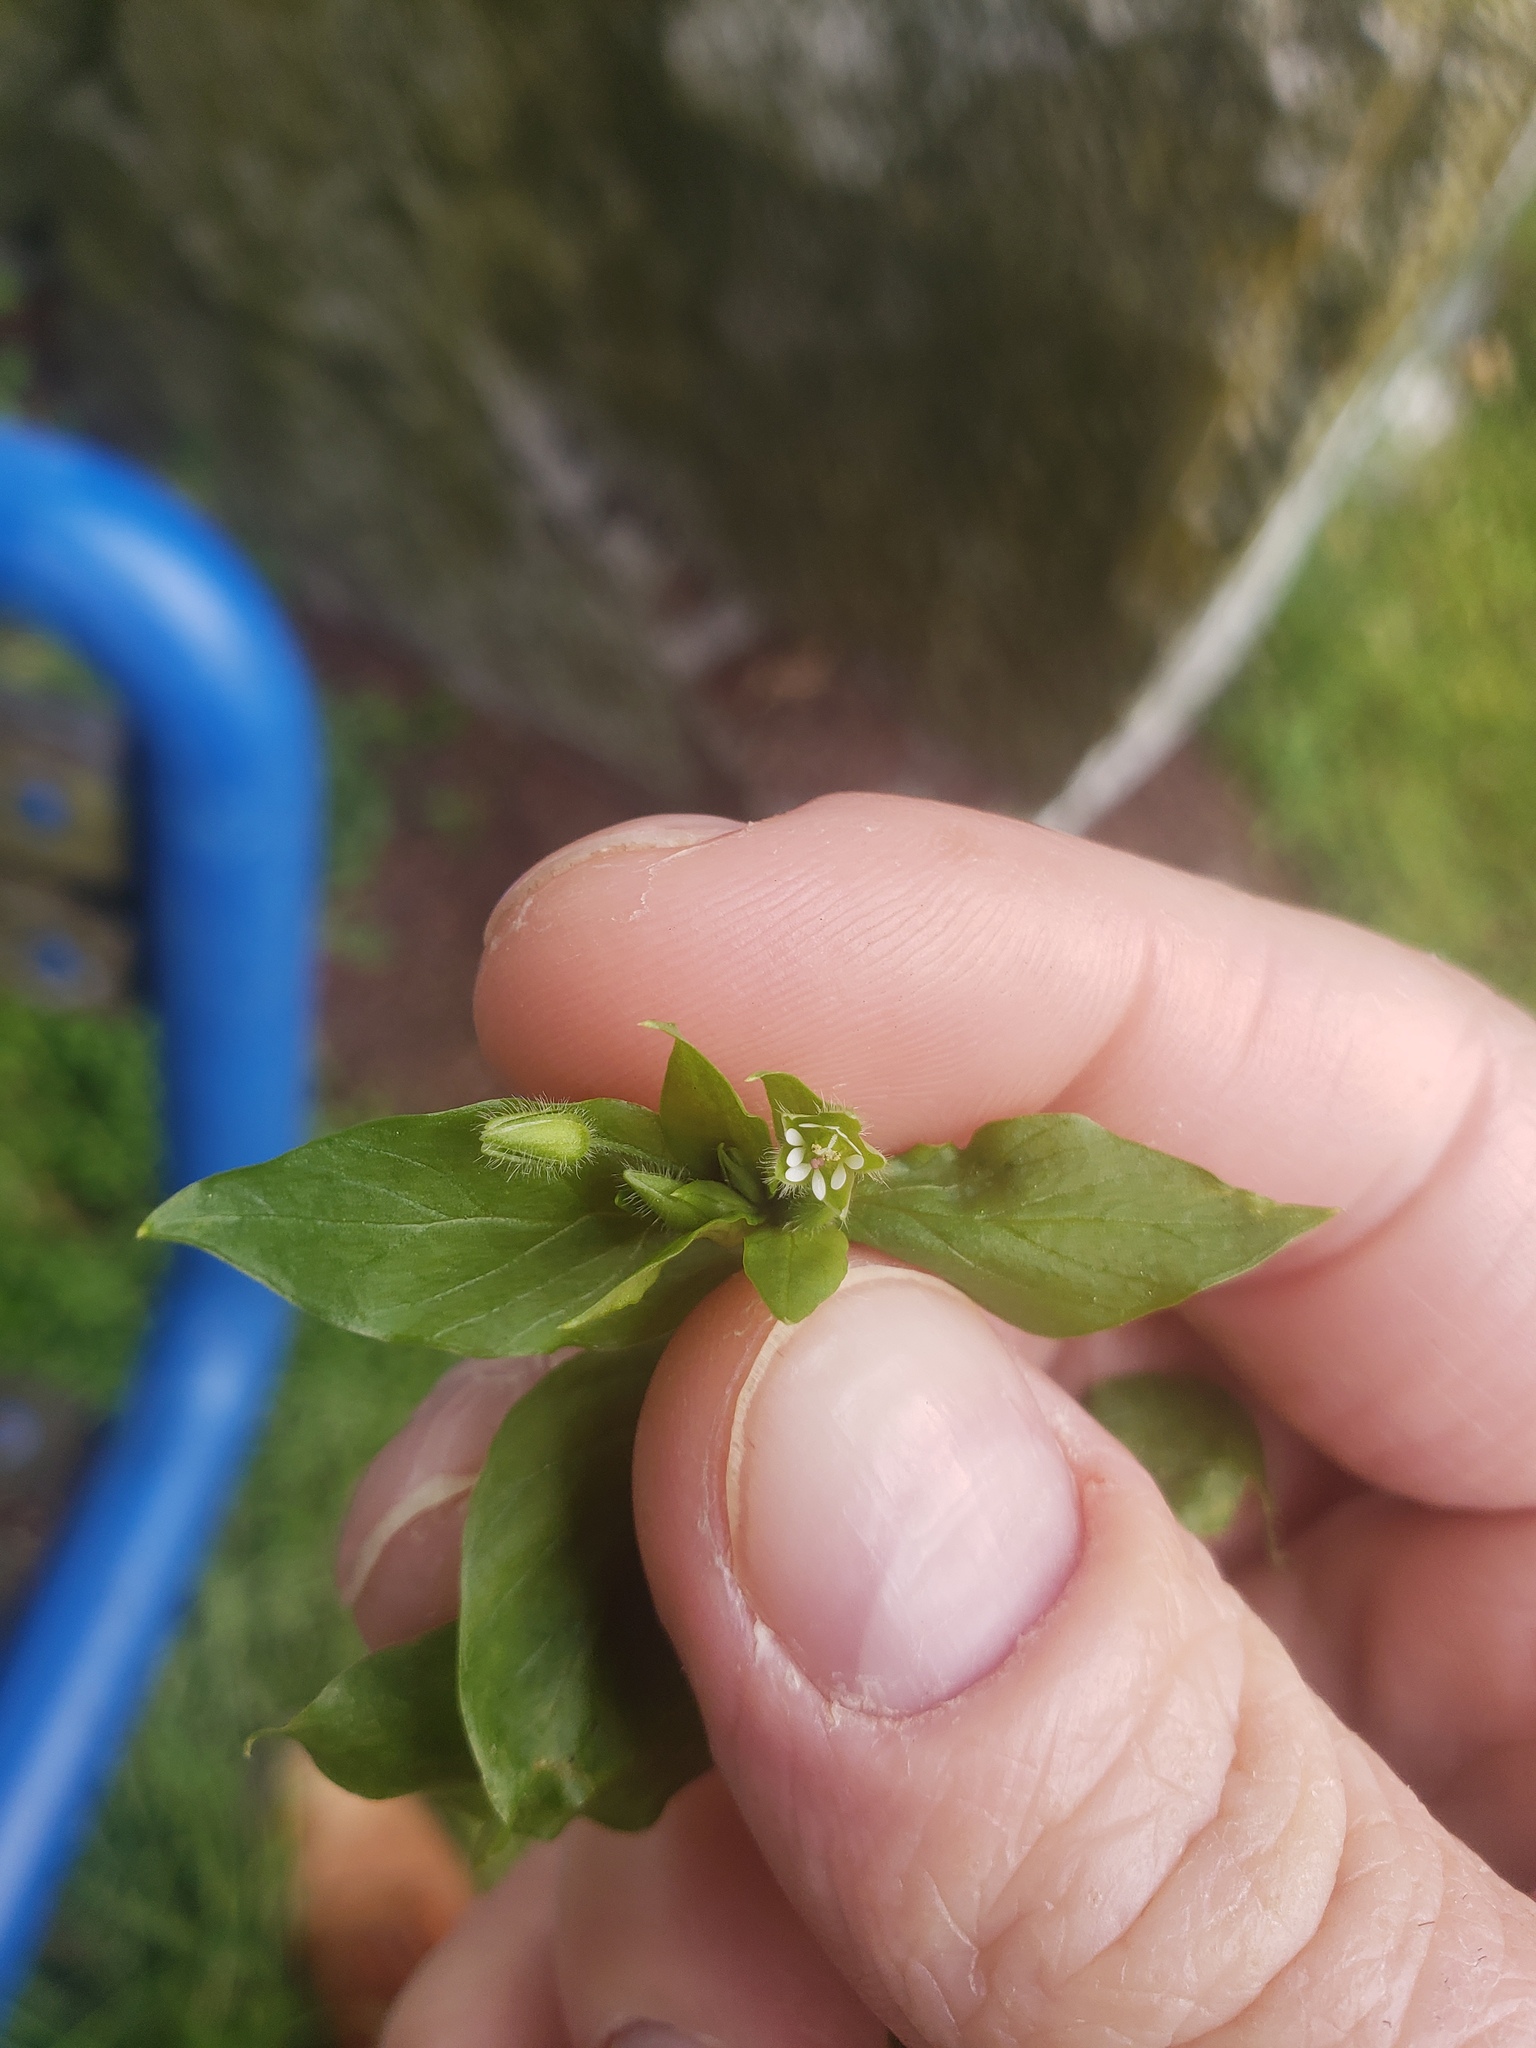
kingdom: Plantae
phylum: Tracheophyta
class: Magnoliopsida
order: Caryophyllales
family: Caryophyllaceae
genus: Stellaria
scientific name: Stellaria media
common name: Common chickweed
